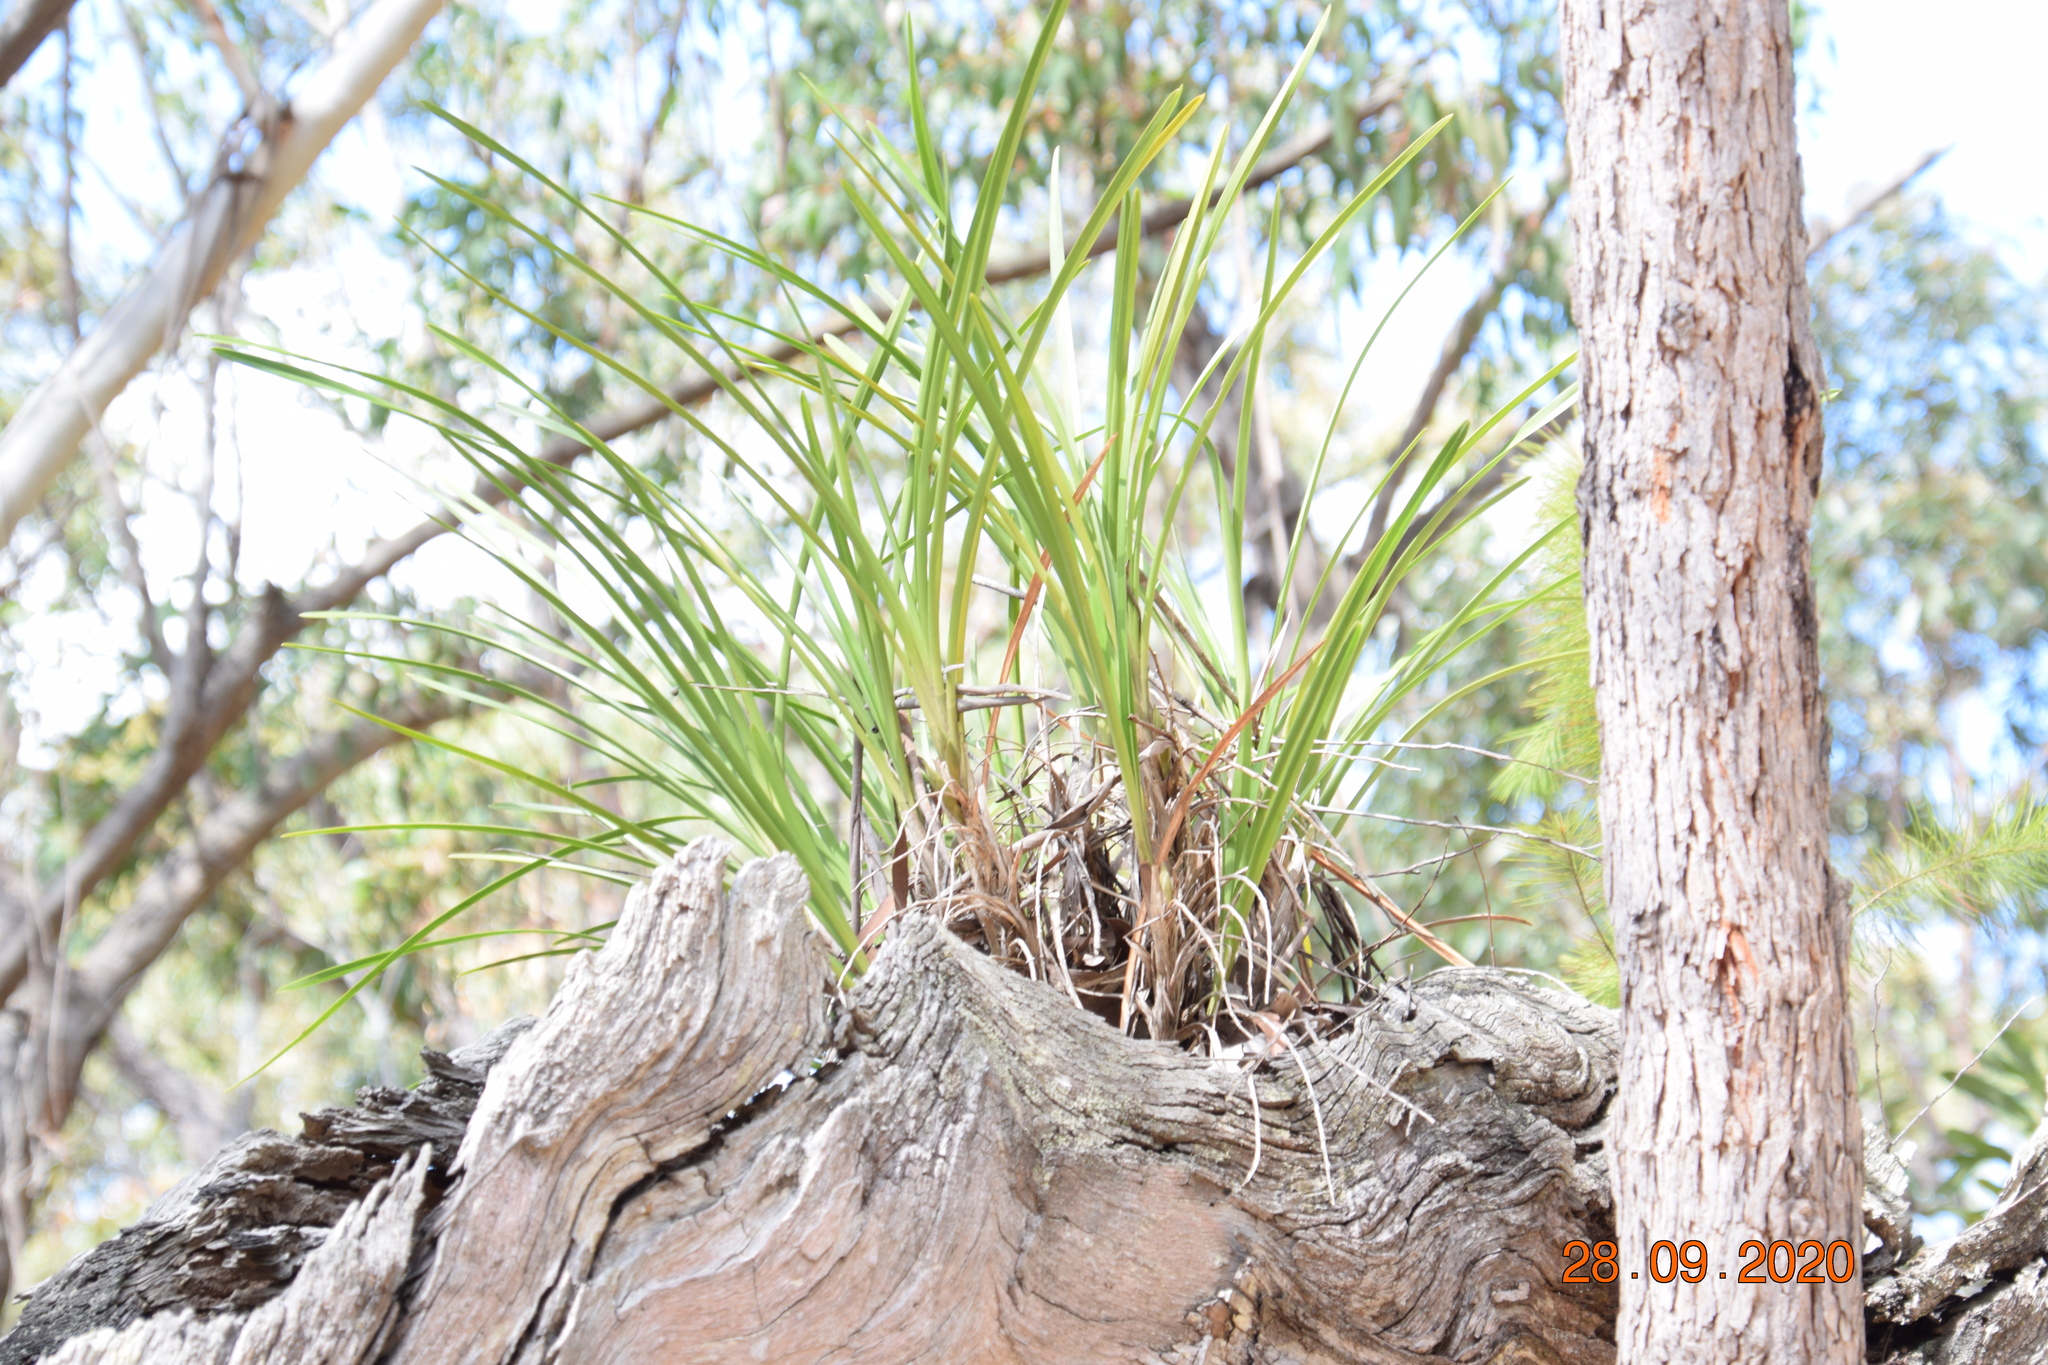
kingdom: Plantae
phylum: Tracheophyta
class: Liliopsida
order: Asparagales
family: Orchidaceae
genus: Cymbidium
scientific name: Cymbidium suave
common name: Snake orchid
